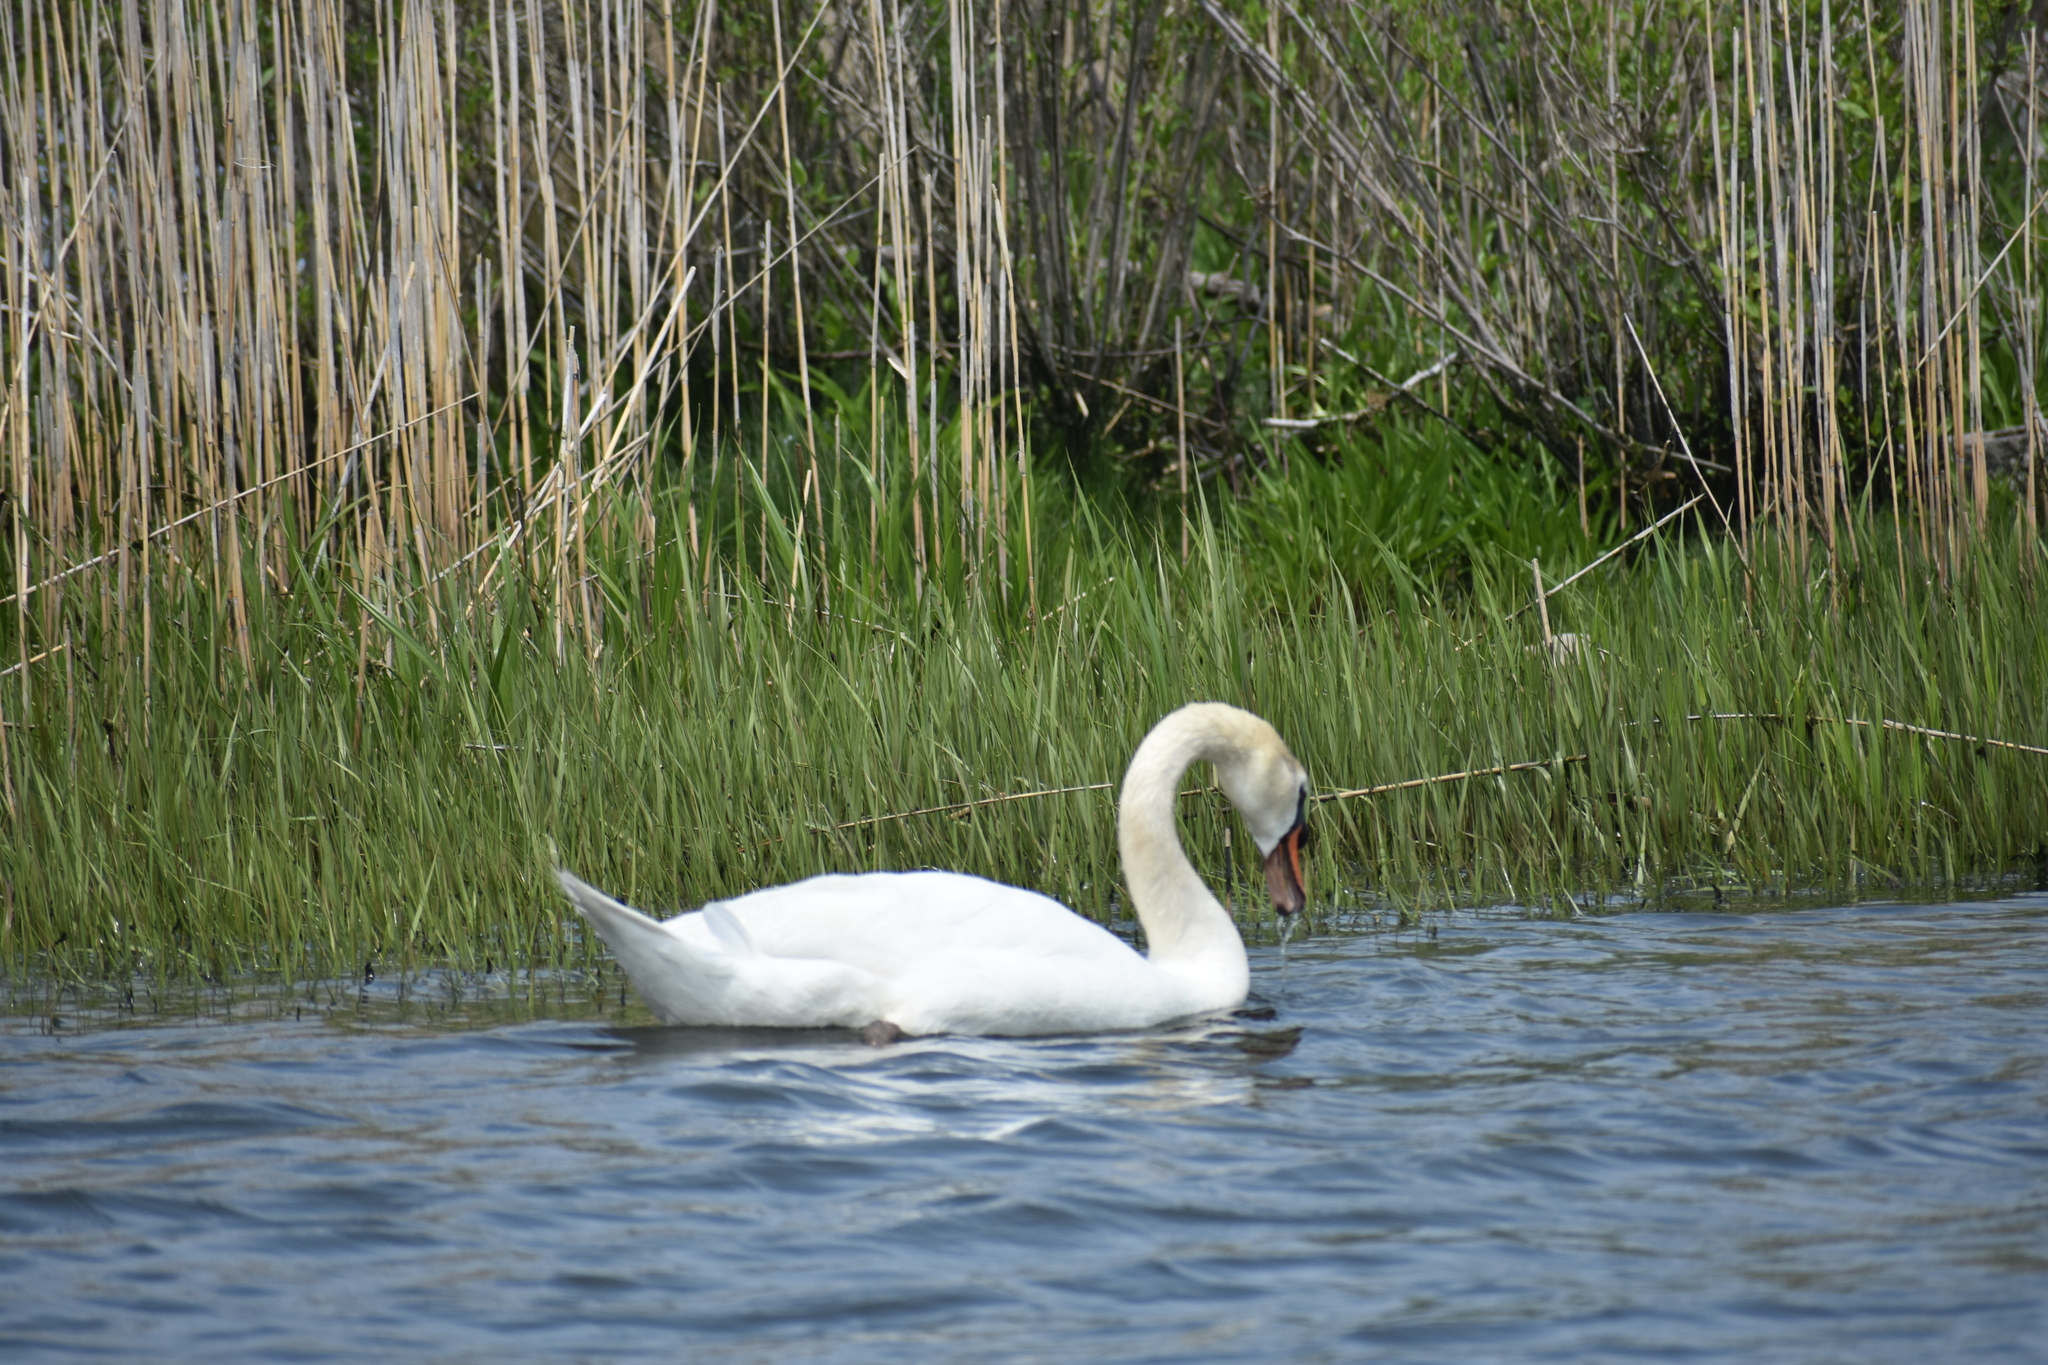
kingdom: Animalia
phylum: Chordata
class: Aves
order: Anseriformes
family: Anatidae
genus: Cygnus
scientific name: Cygnus olor
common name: Mute swan
